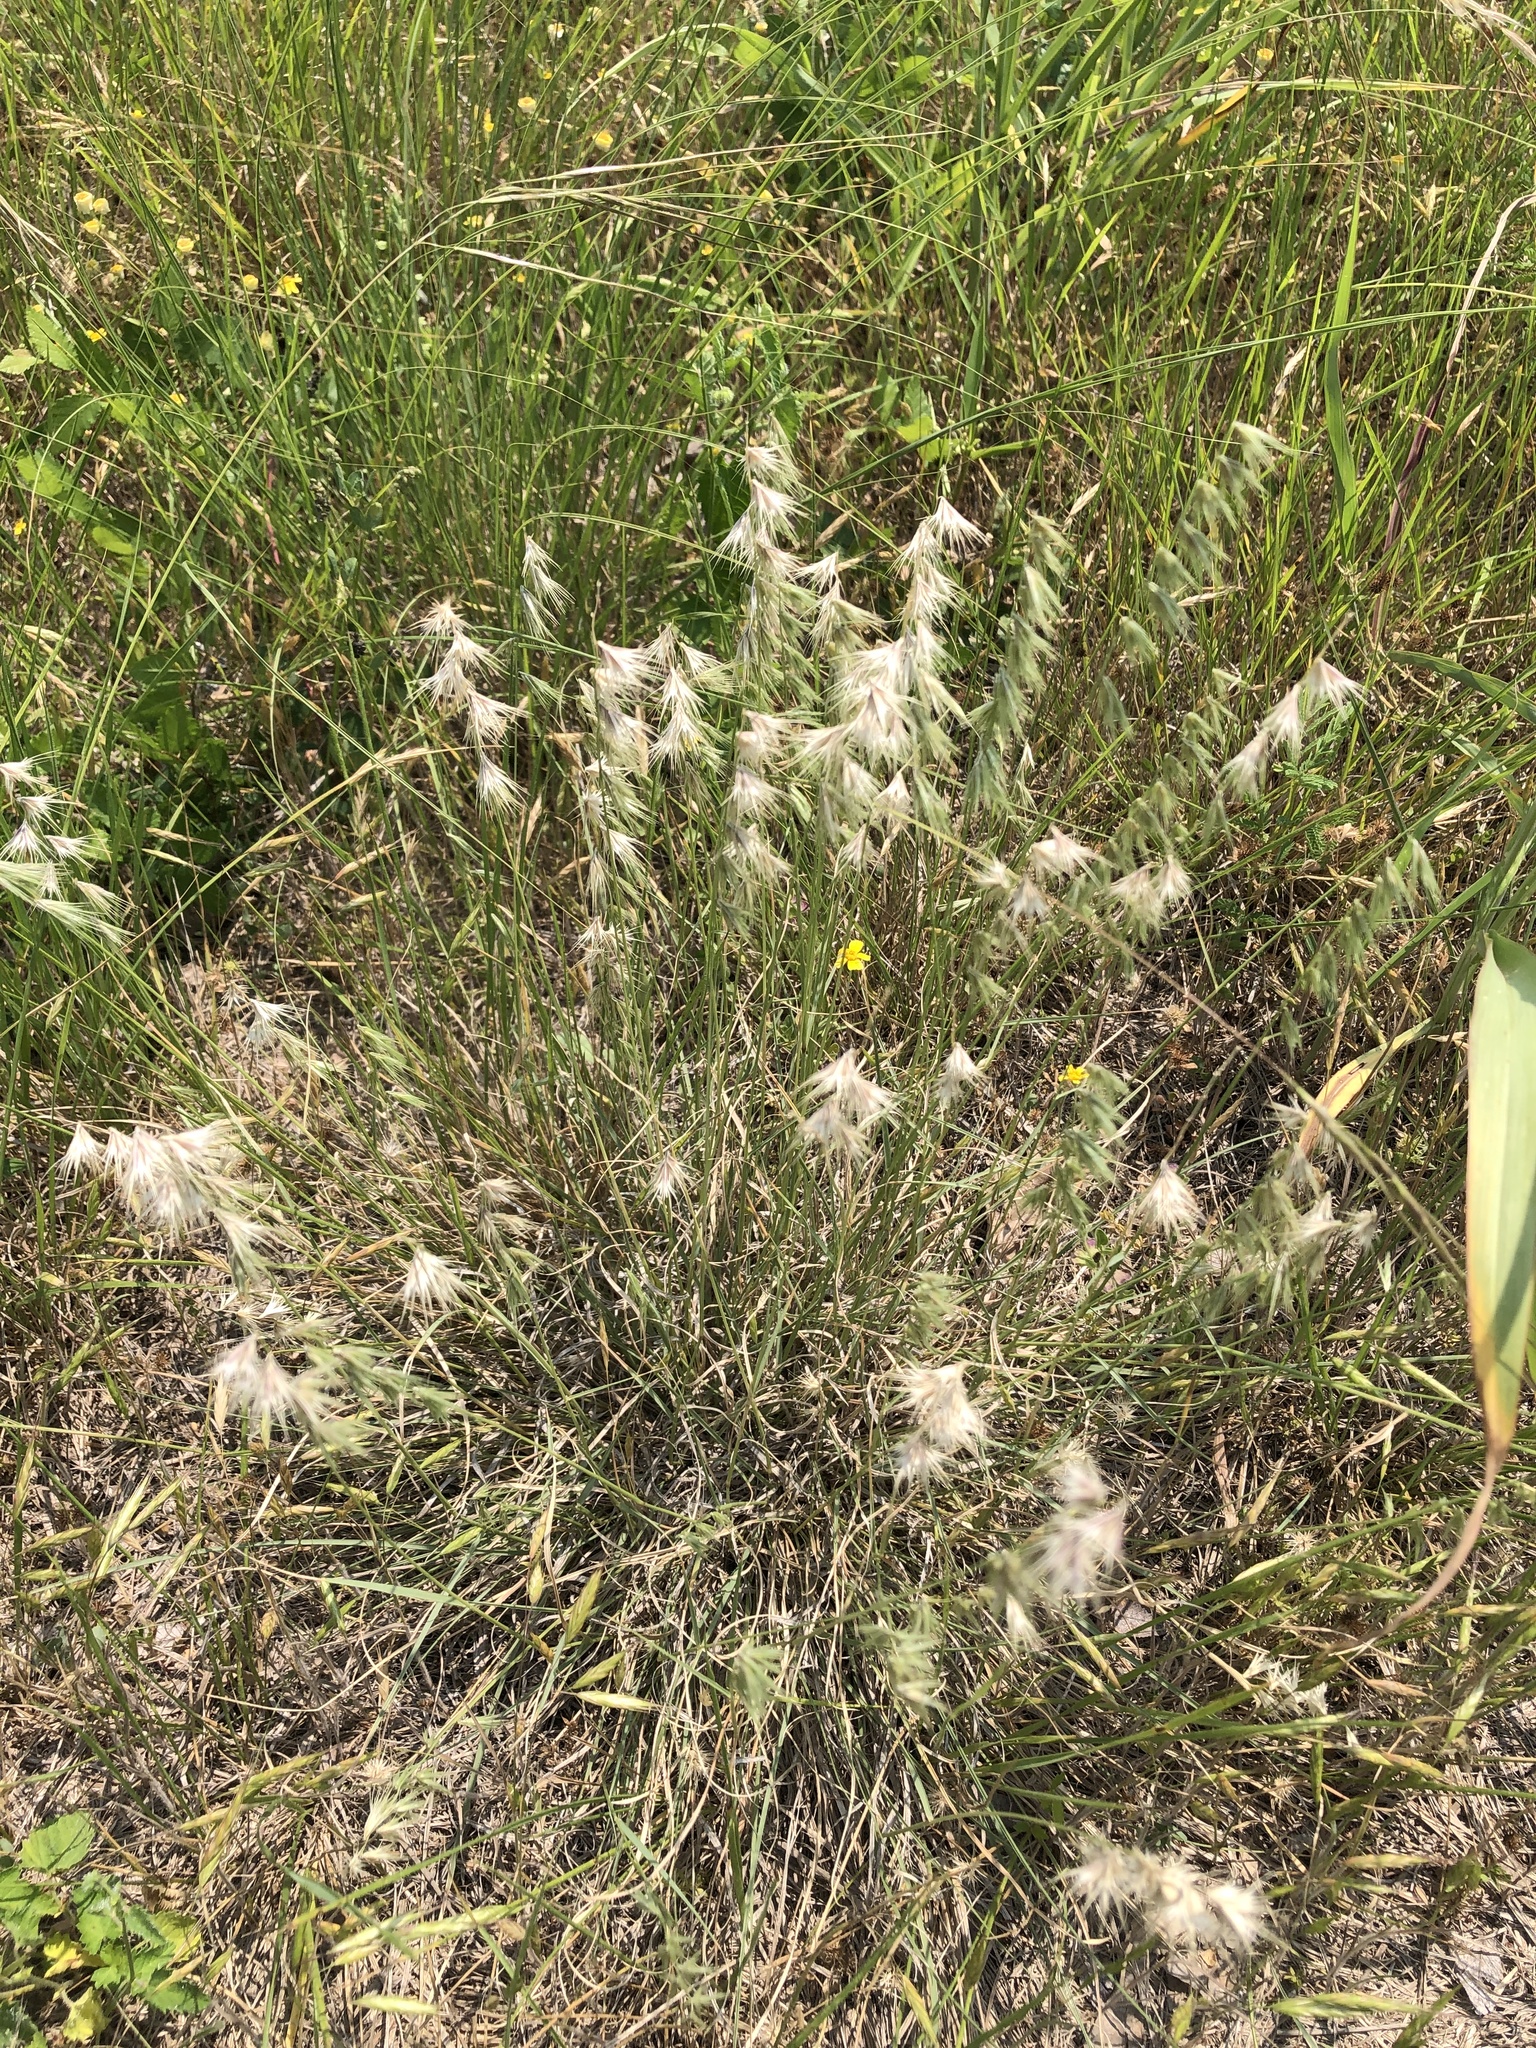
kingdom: Plantae
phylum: Tracheophyta
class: Liliopsida
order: Poales
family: Poaceae
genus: Bouteloua
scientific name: Bouteloua rigidiseta
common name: Texas grama
